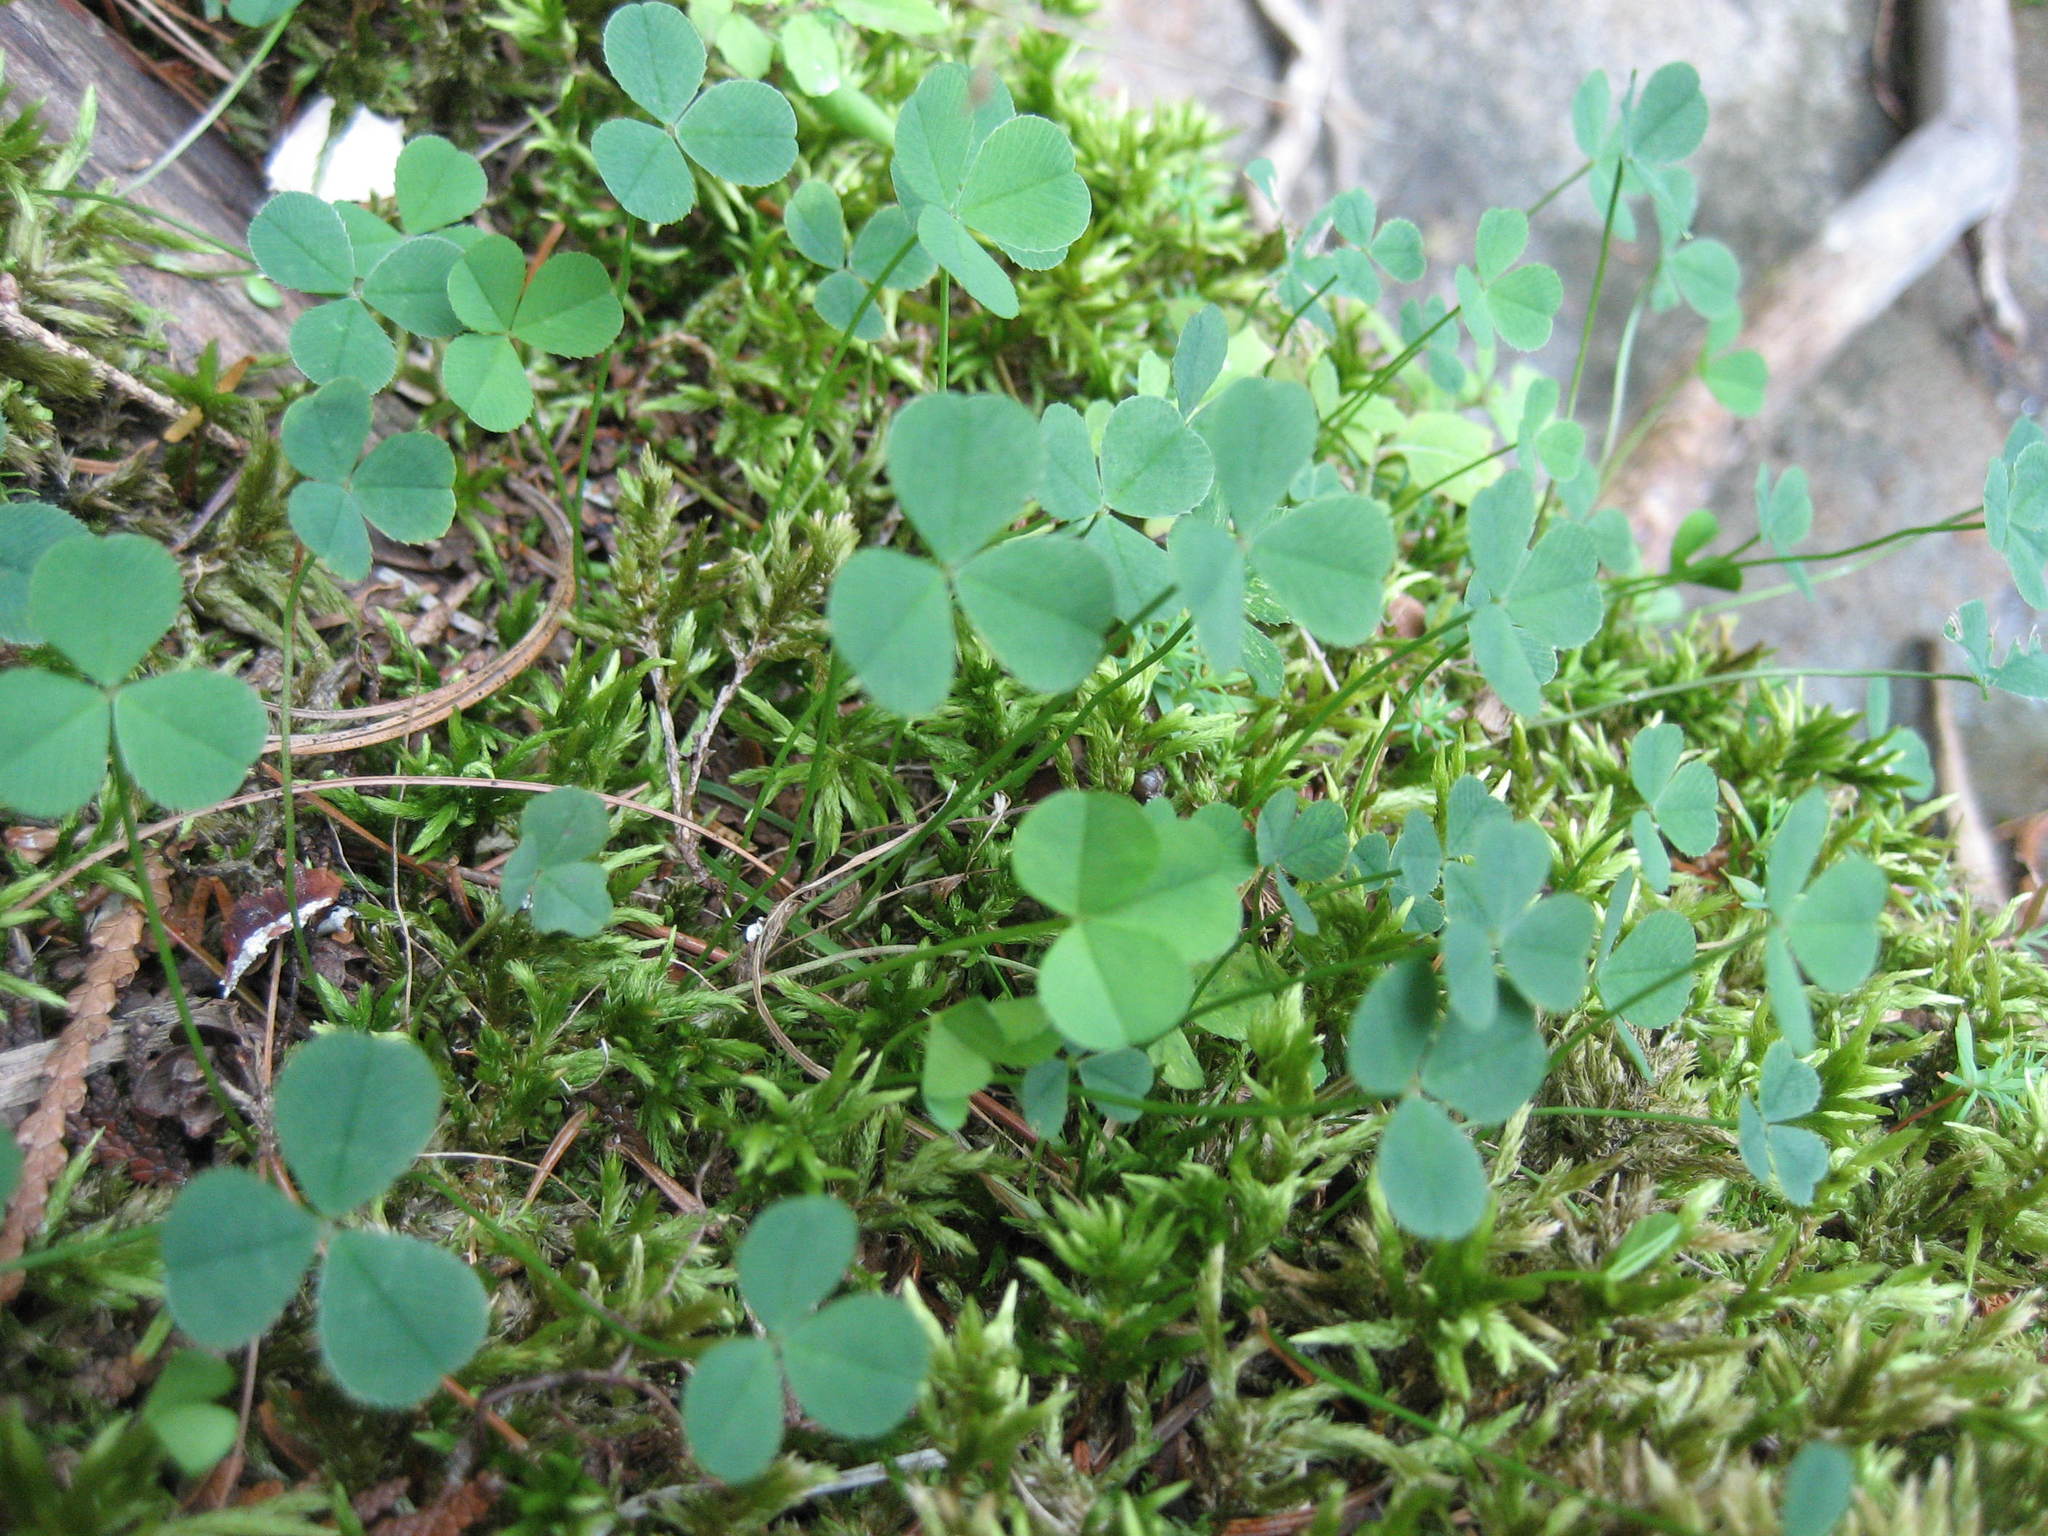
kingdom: Plantae
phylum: Tracheophyta
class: Magnoliopsida
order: Fabales
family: Fabaceae
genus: Trifolium
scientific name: Trifolium repens
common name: White clover
